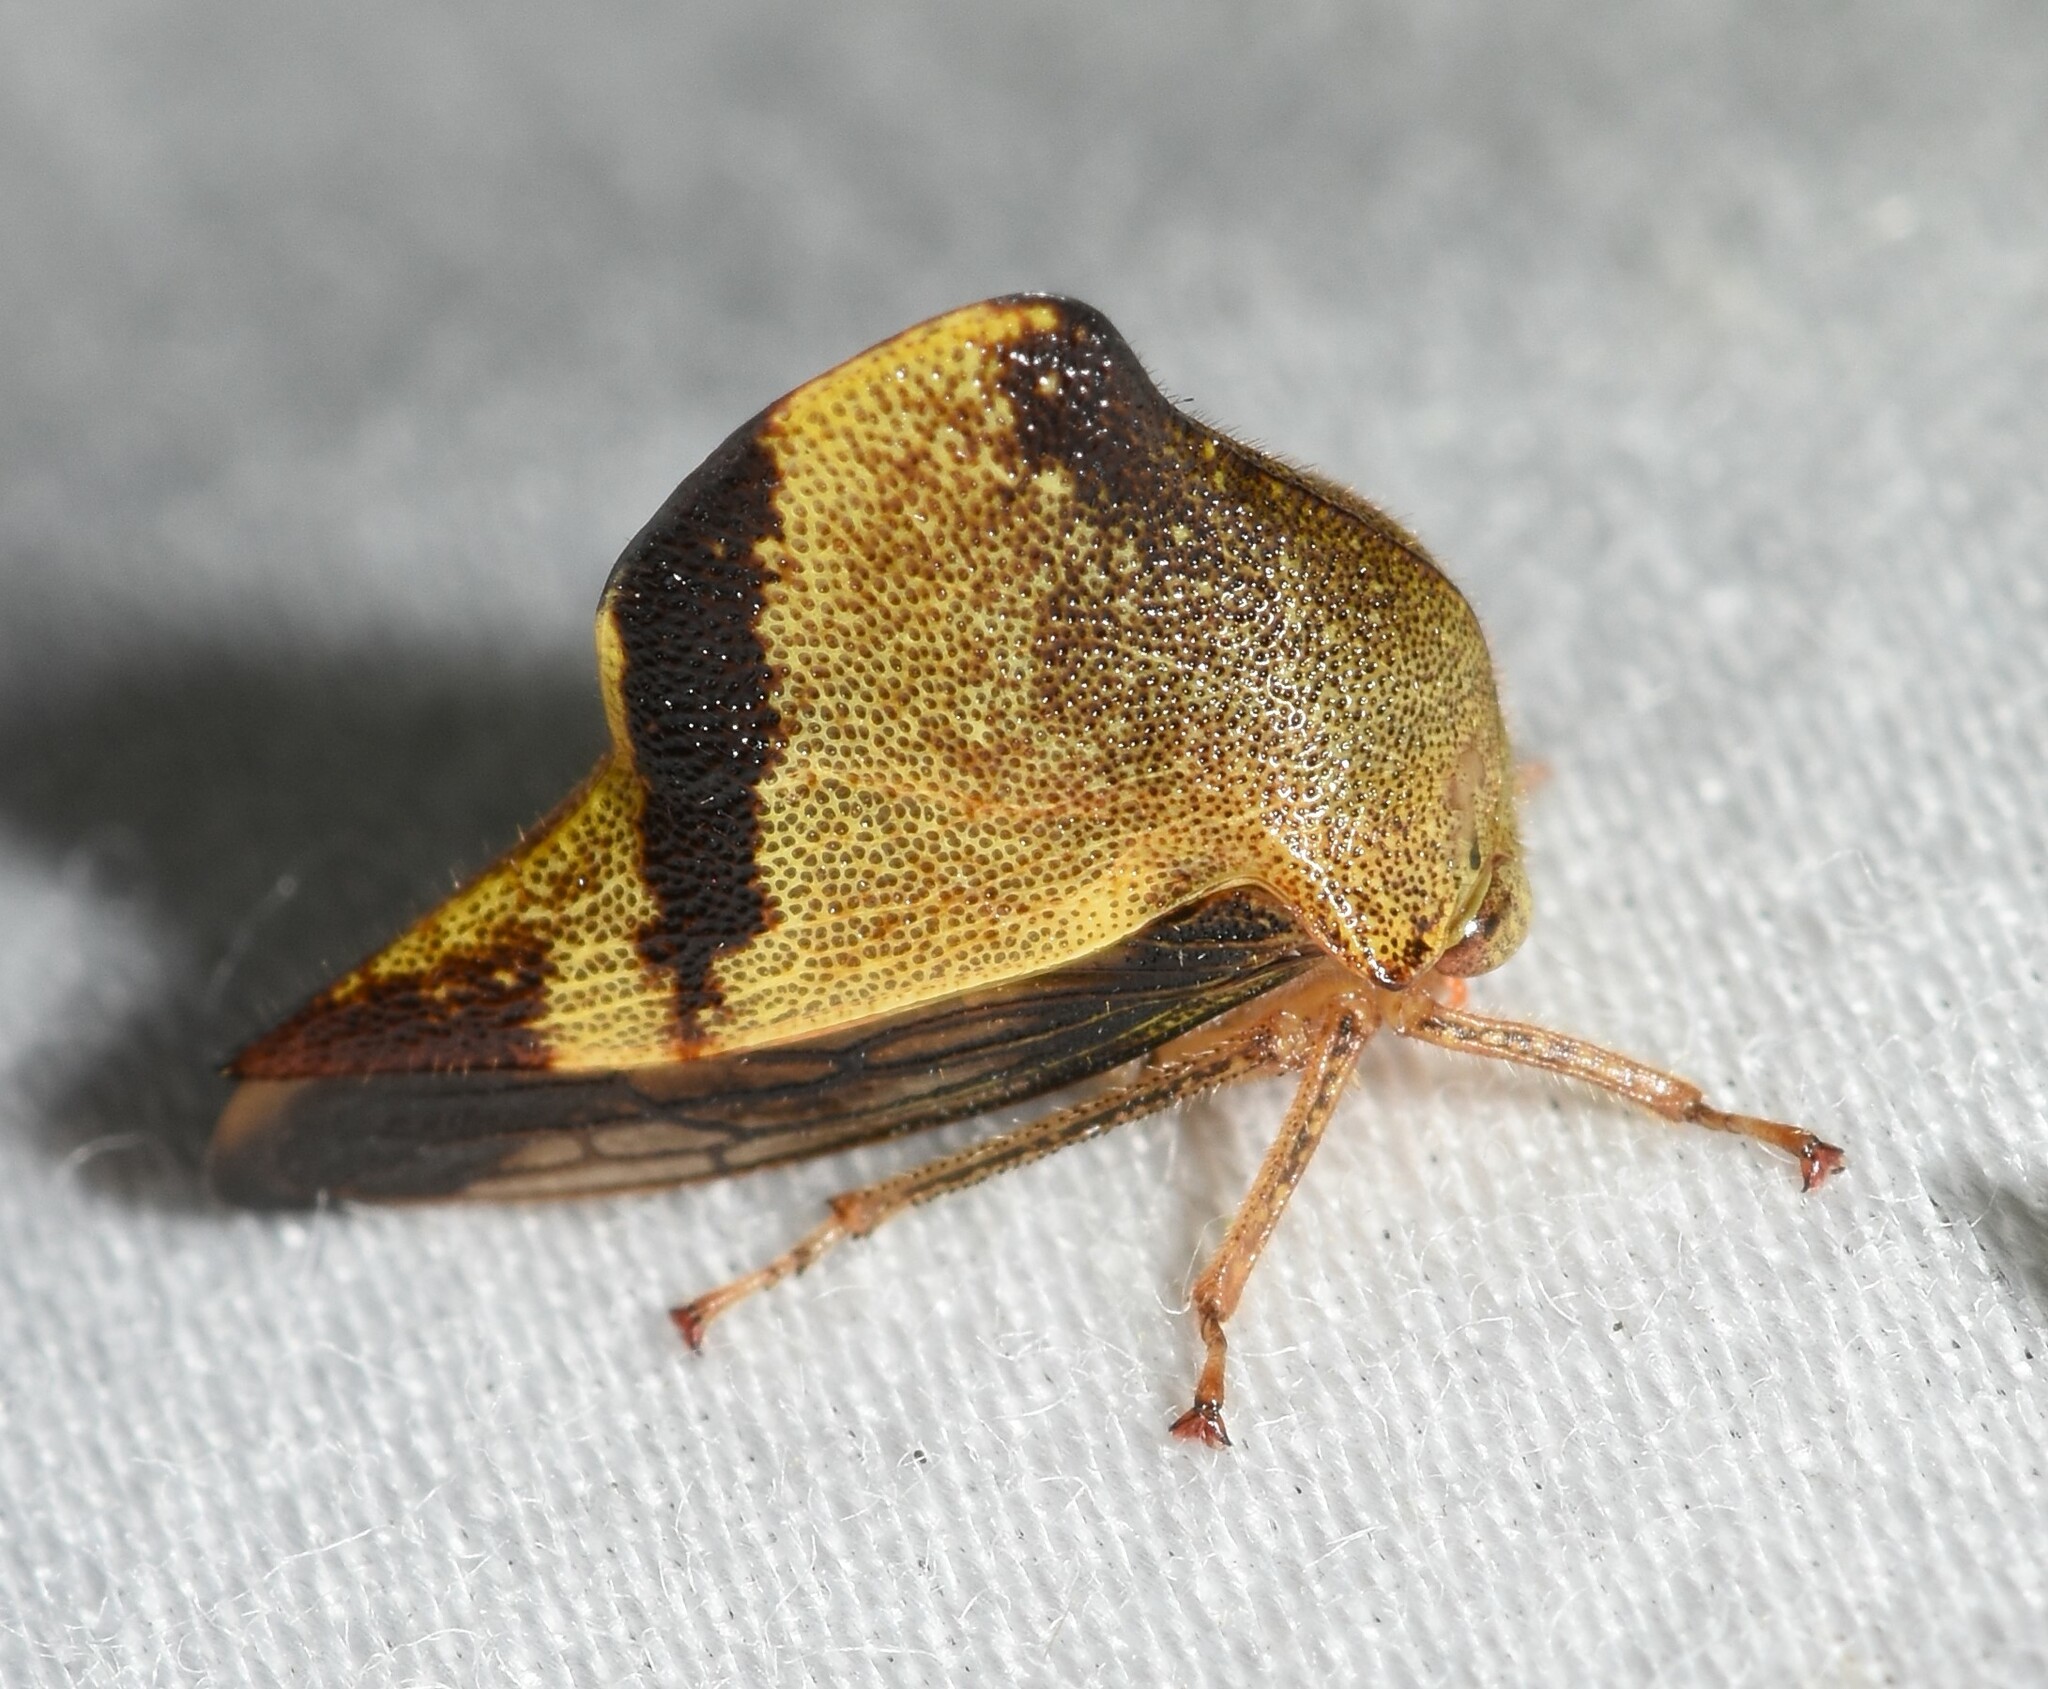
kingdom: Animalia
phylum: Arthropoda
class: Insecta
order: Hemiptera
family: Membracidae
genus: Helonica
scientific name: Helonica excelsa
